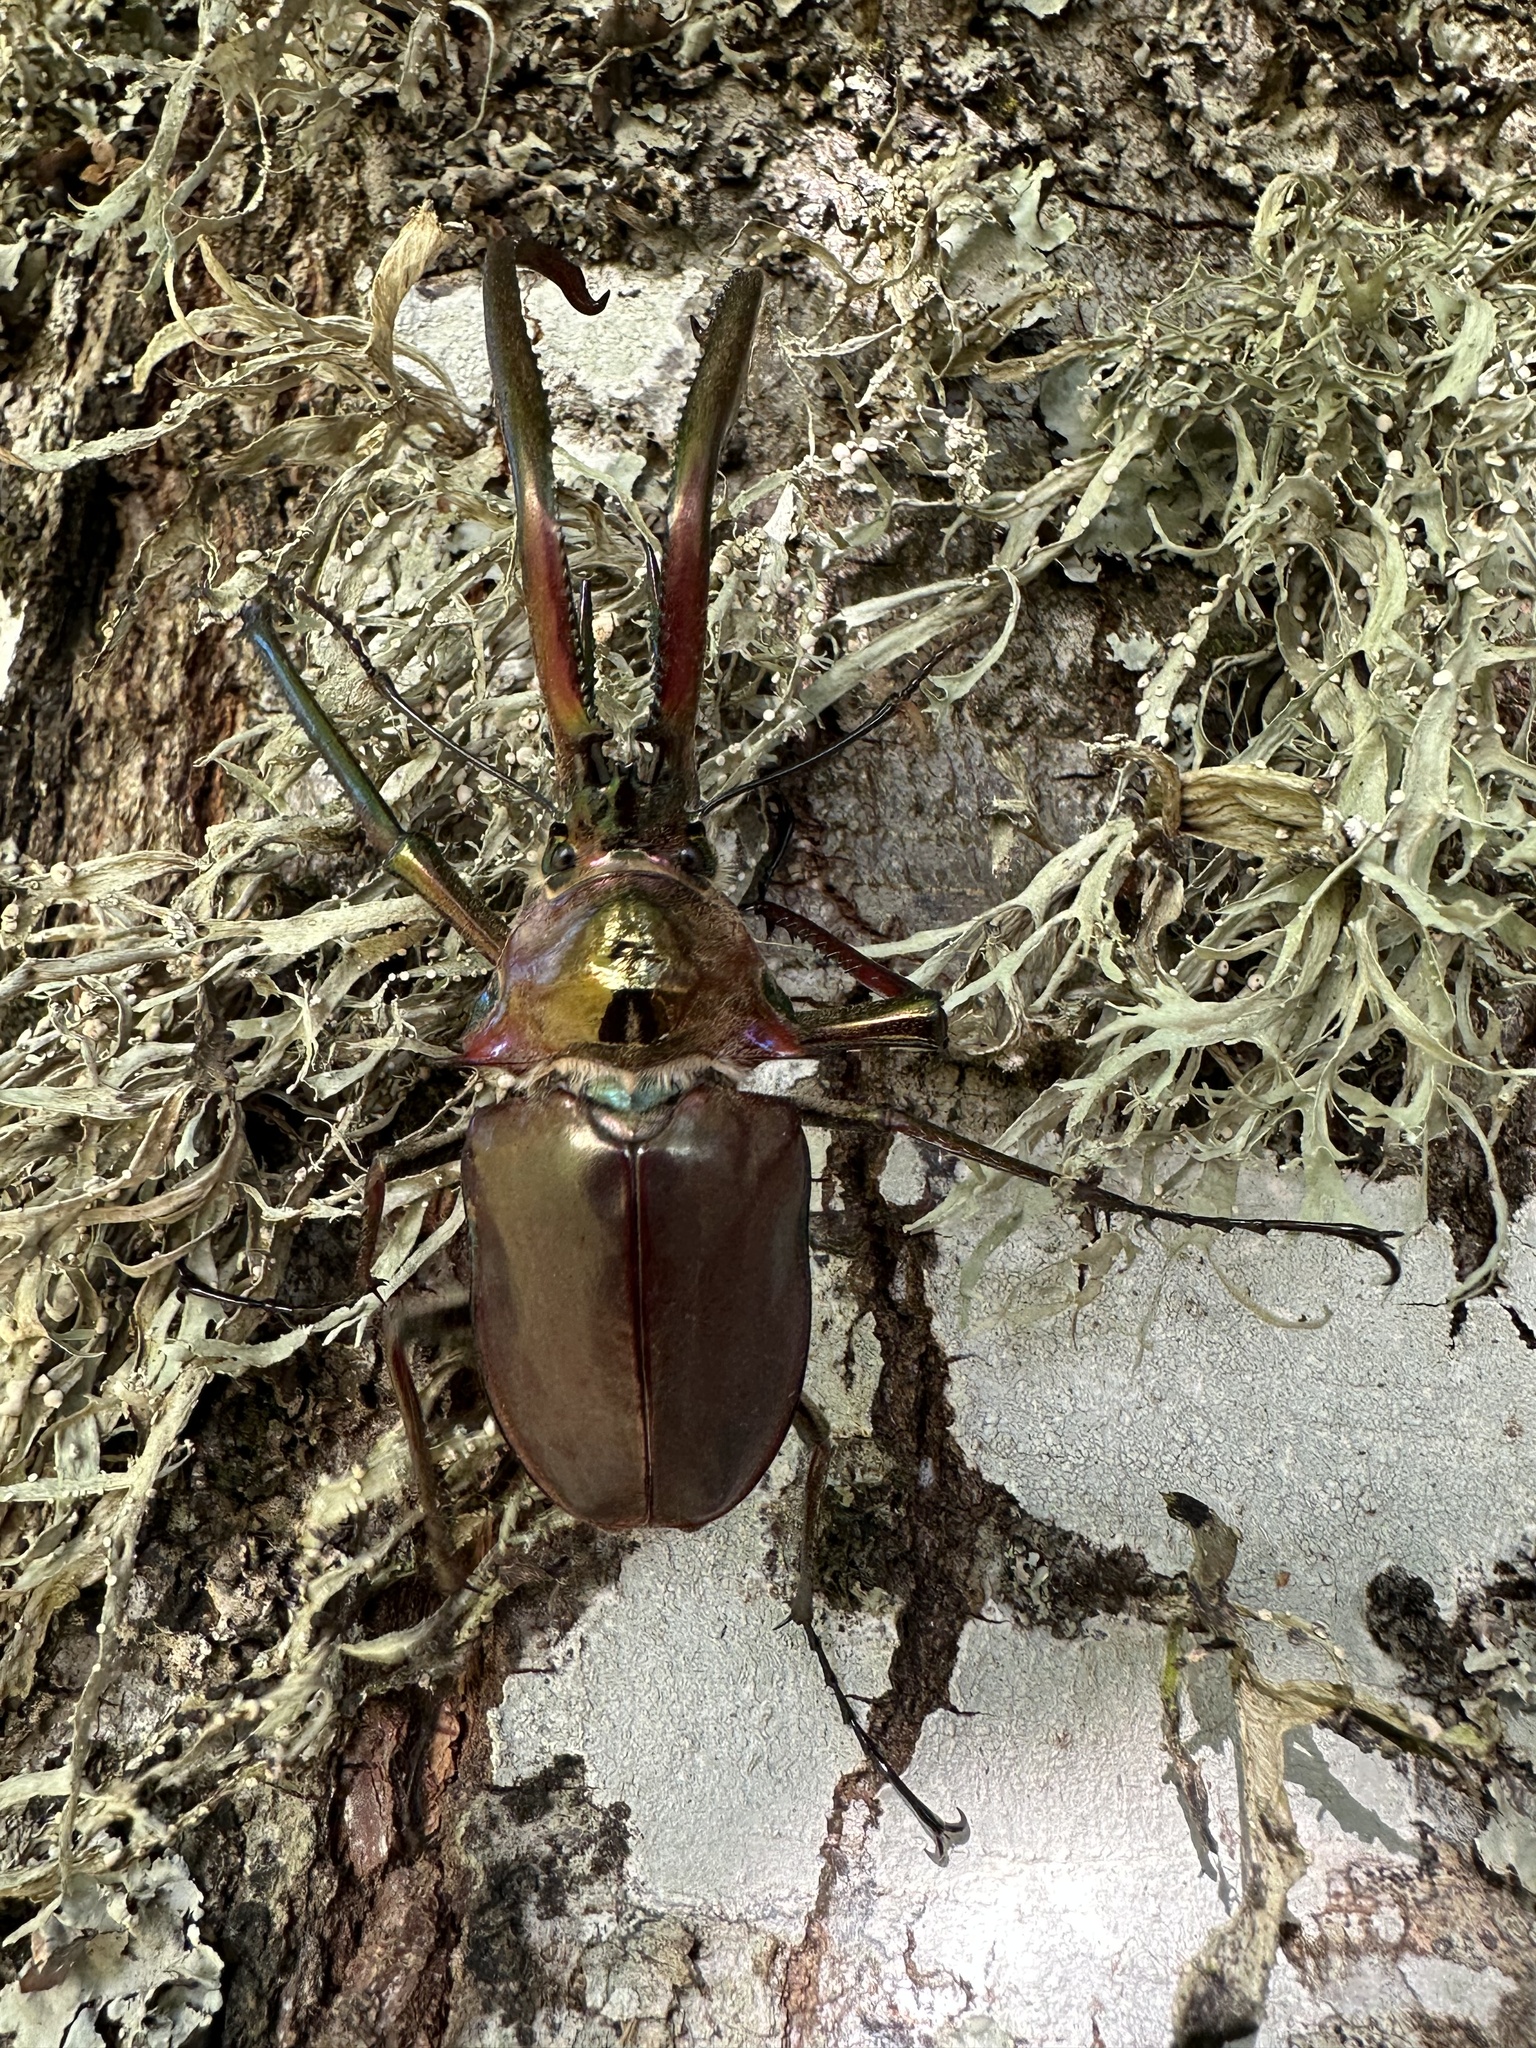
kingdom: Animalia
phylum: Arthropoda
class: Insecta
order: Coleoptera
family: Lucanidae
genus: Chiasognathus
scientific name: Chiasognathus grantii
